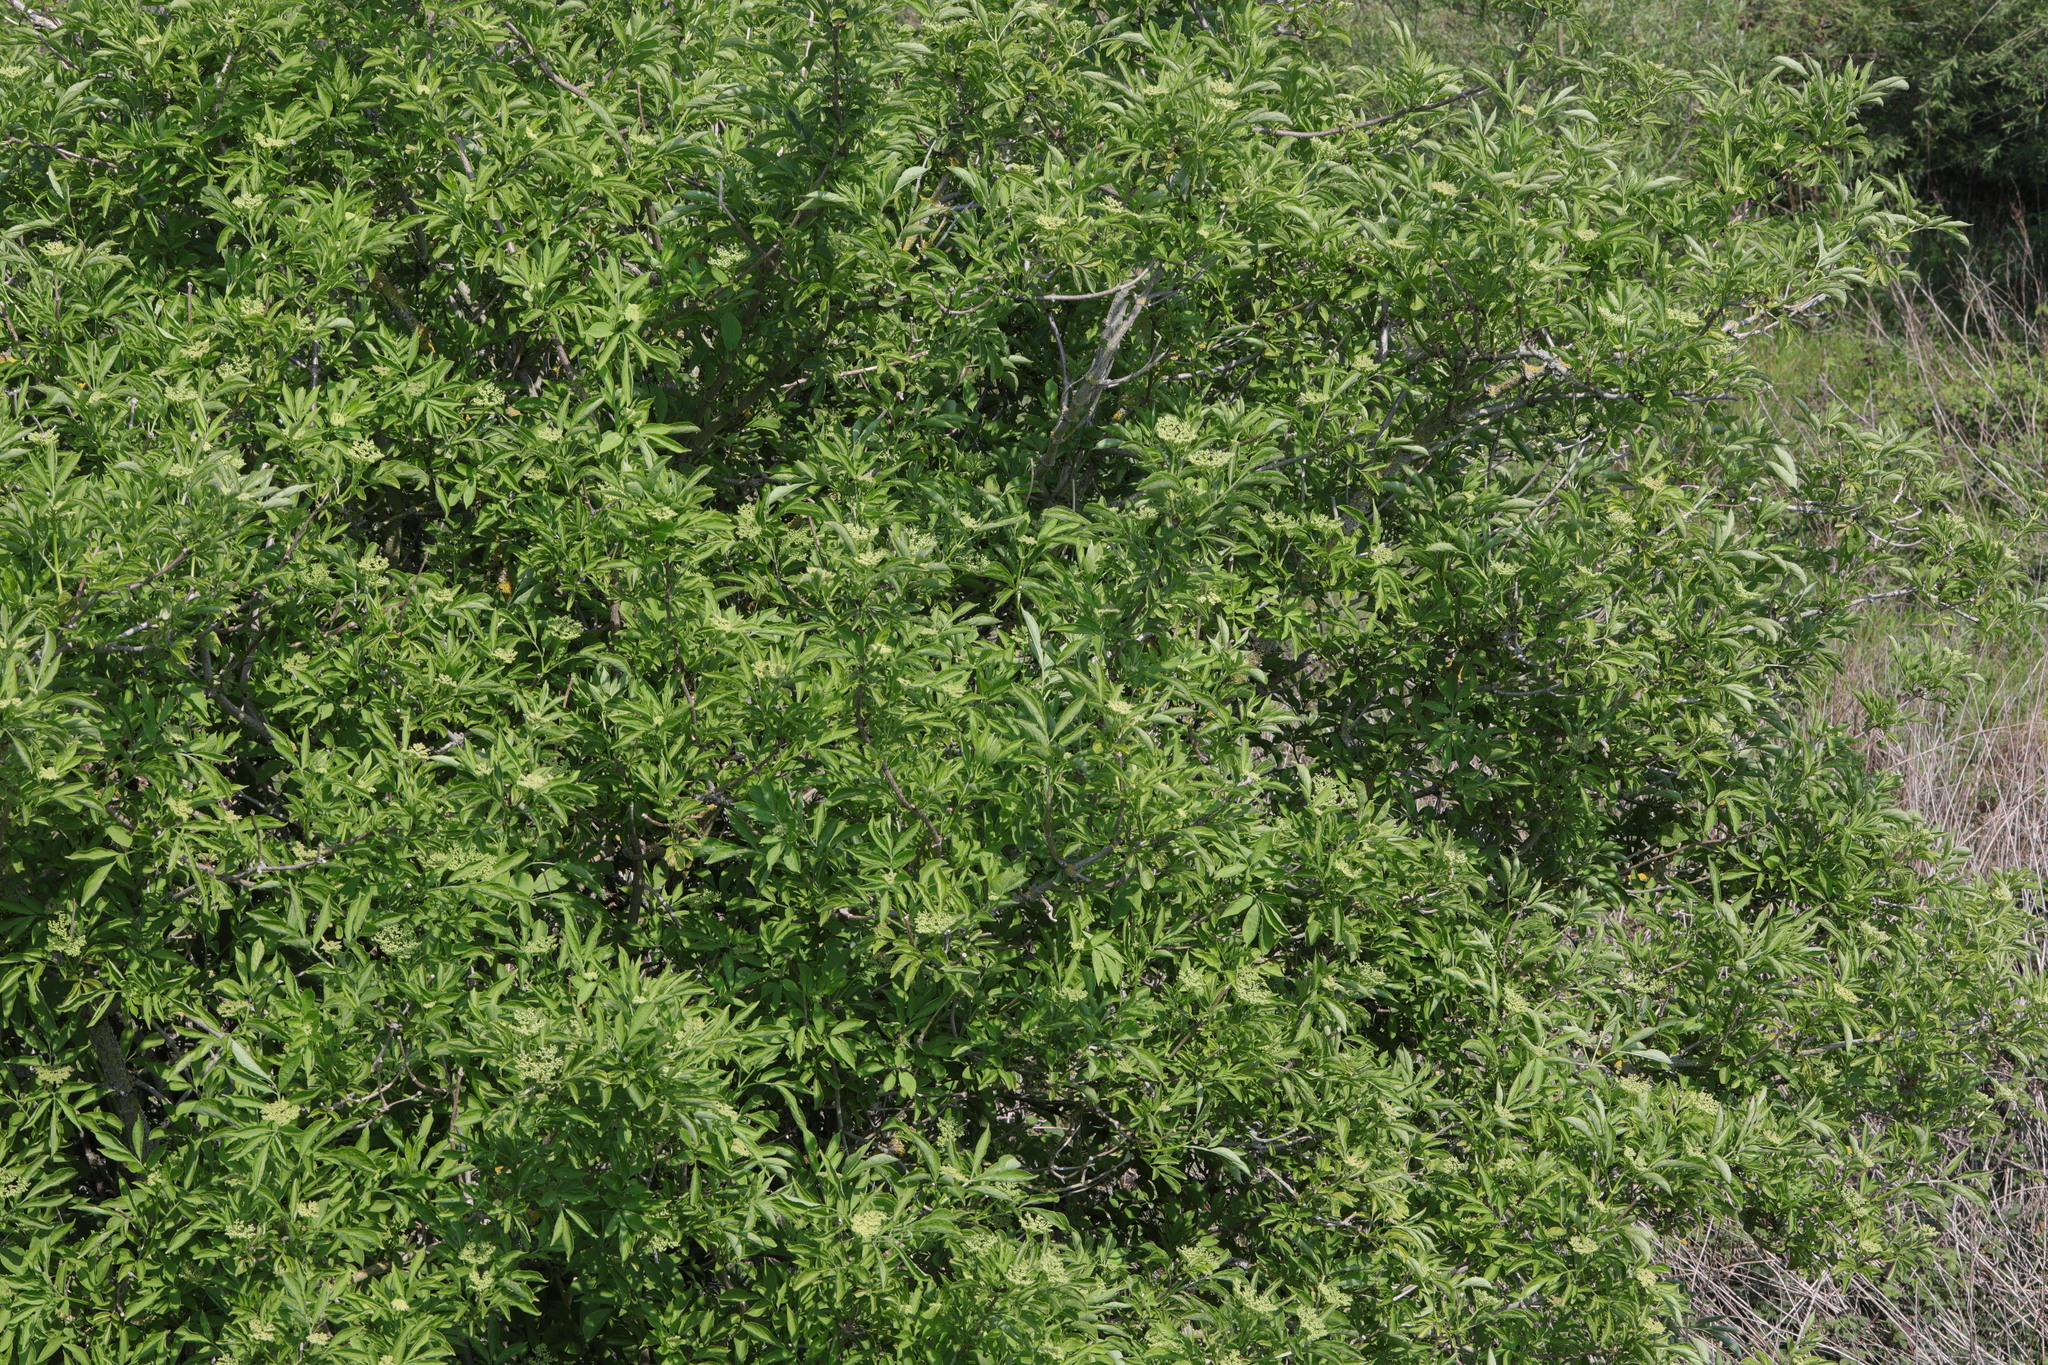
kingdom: Plantae
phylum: Tracheophyta
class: Magnoliopsida
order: Dipsacales
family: Viburnaceae
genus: Sambucus
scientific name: Sambucus nigra
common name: Elder
